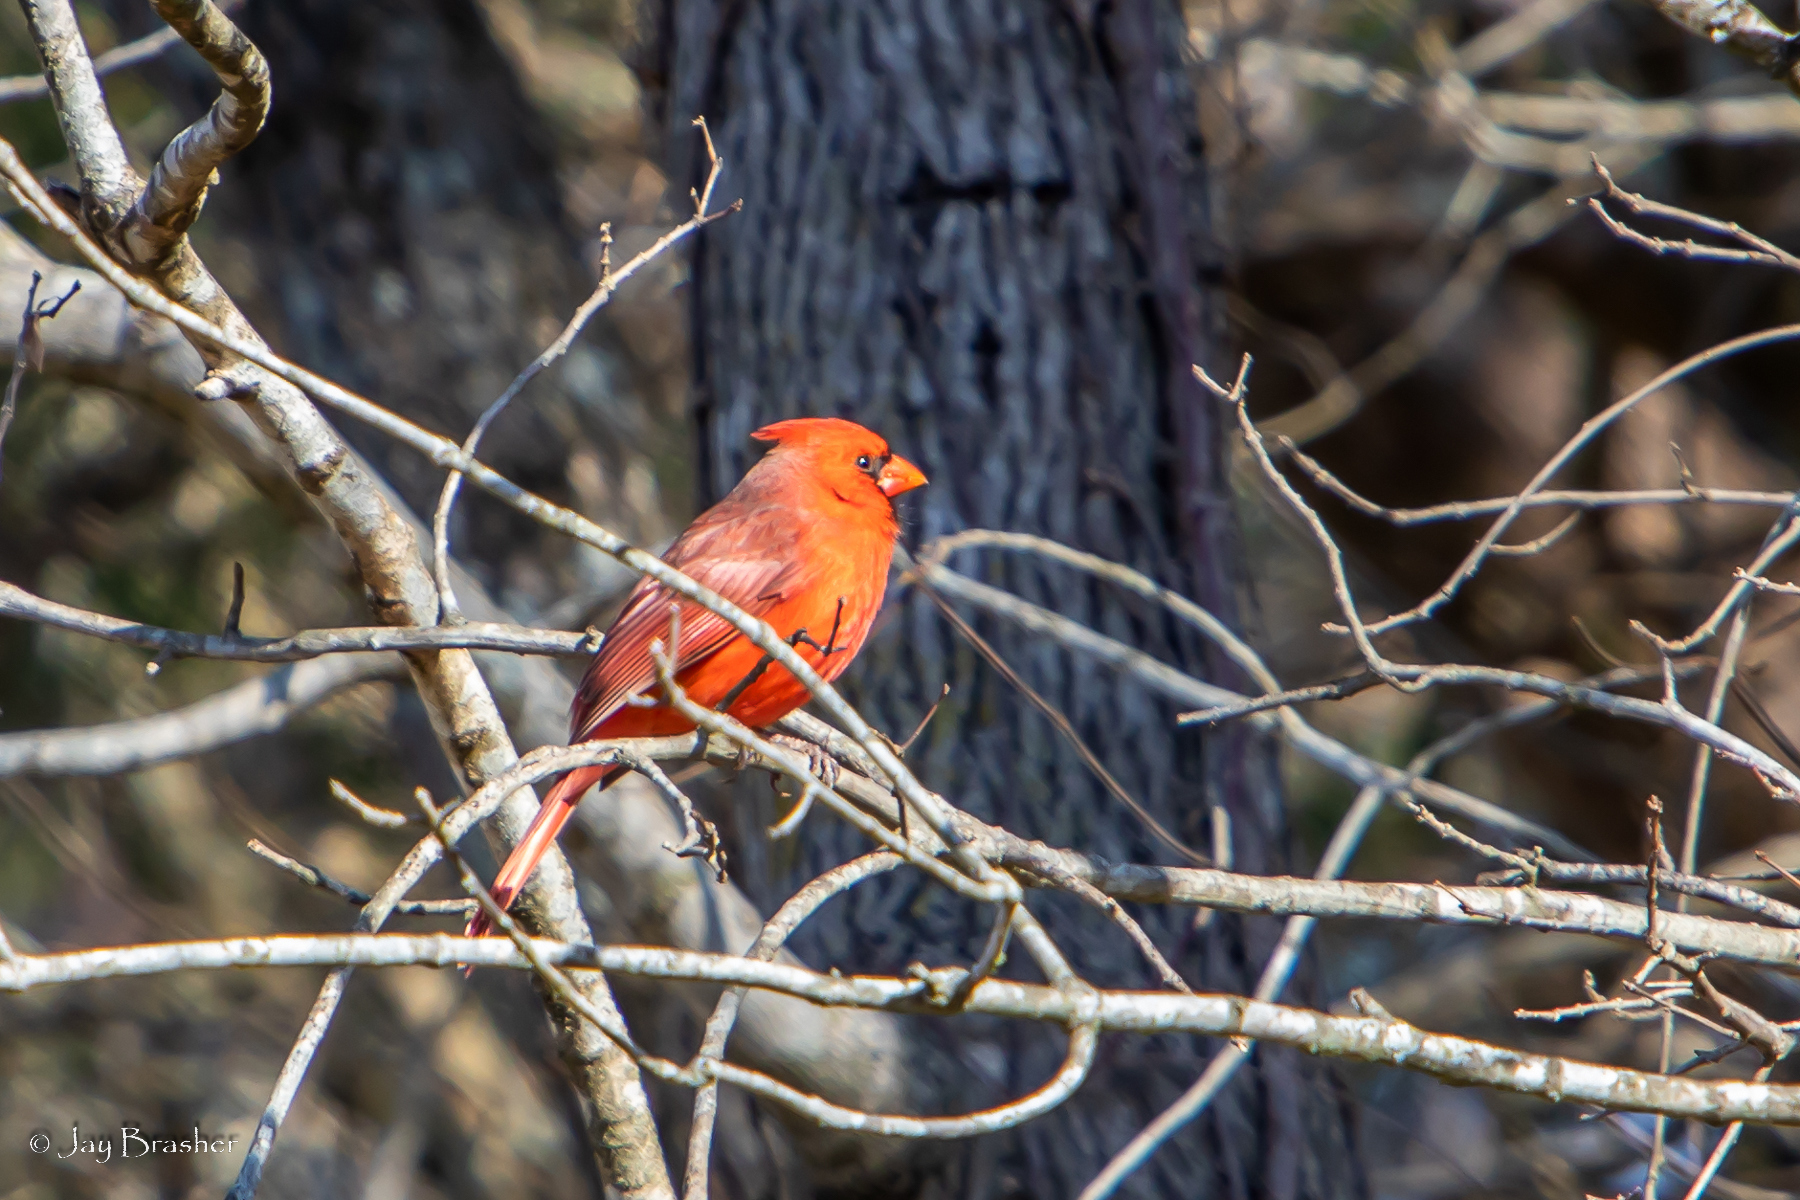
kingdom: Animalia
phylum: Chordata
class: Aves
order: Passeriformes
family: Cardinalidae
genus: Cardinalis
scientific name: Cardinalis cardinalis
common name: Northern cardinal
